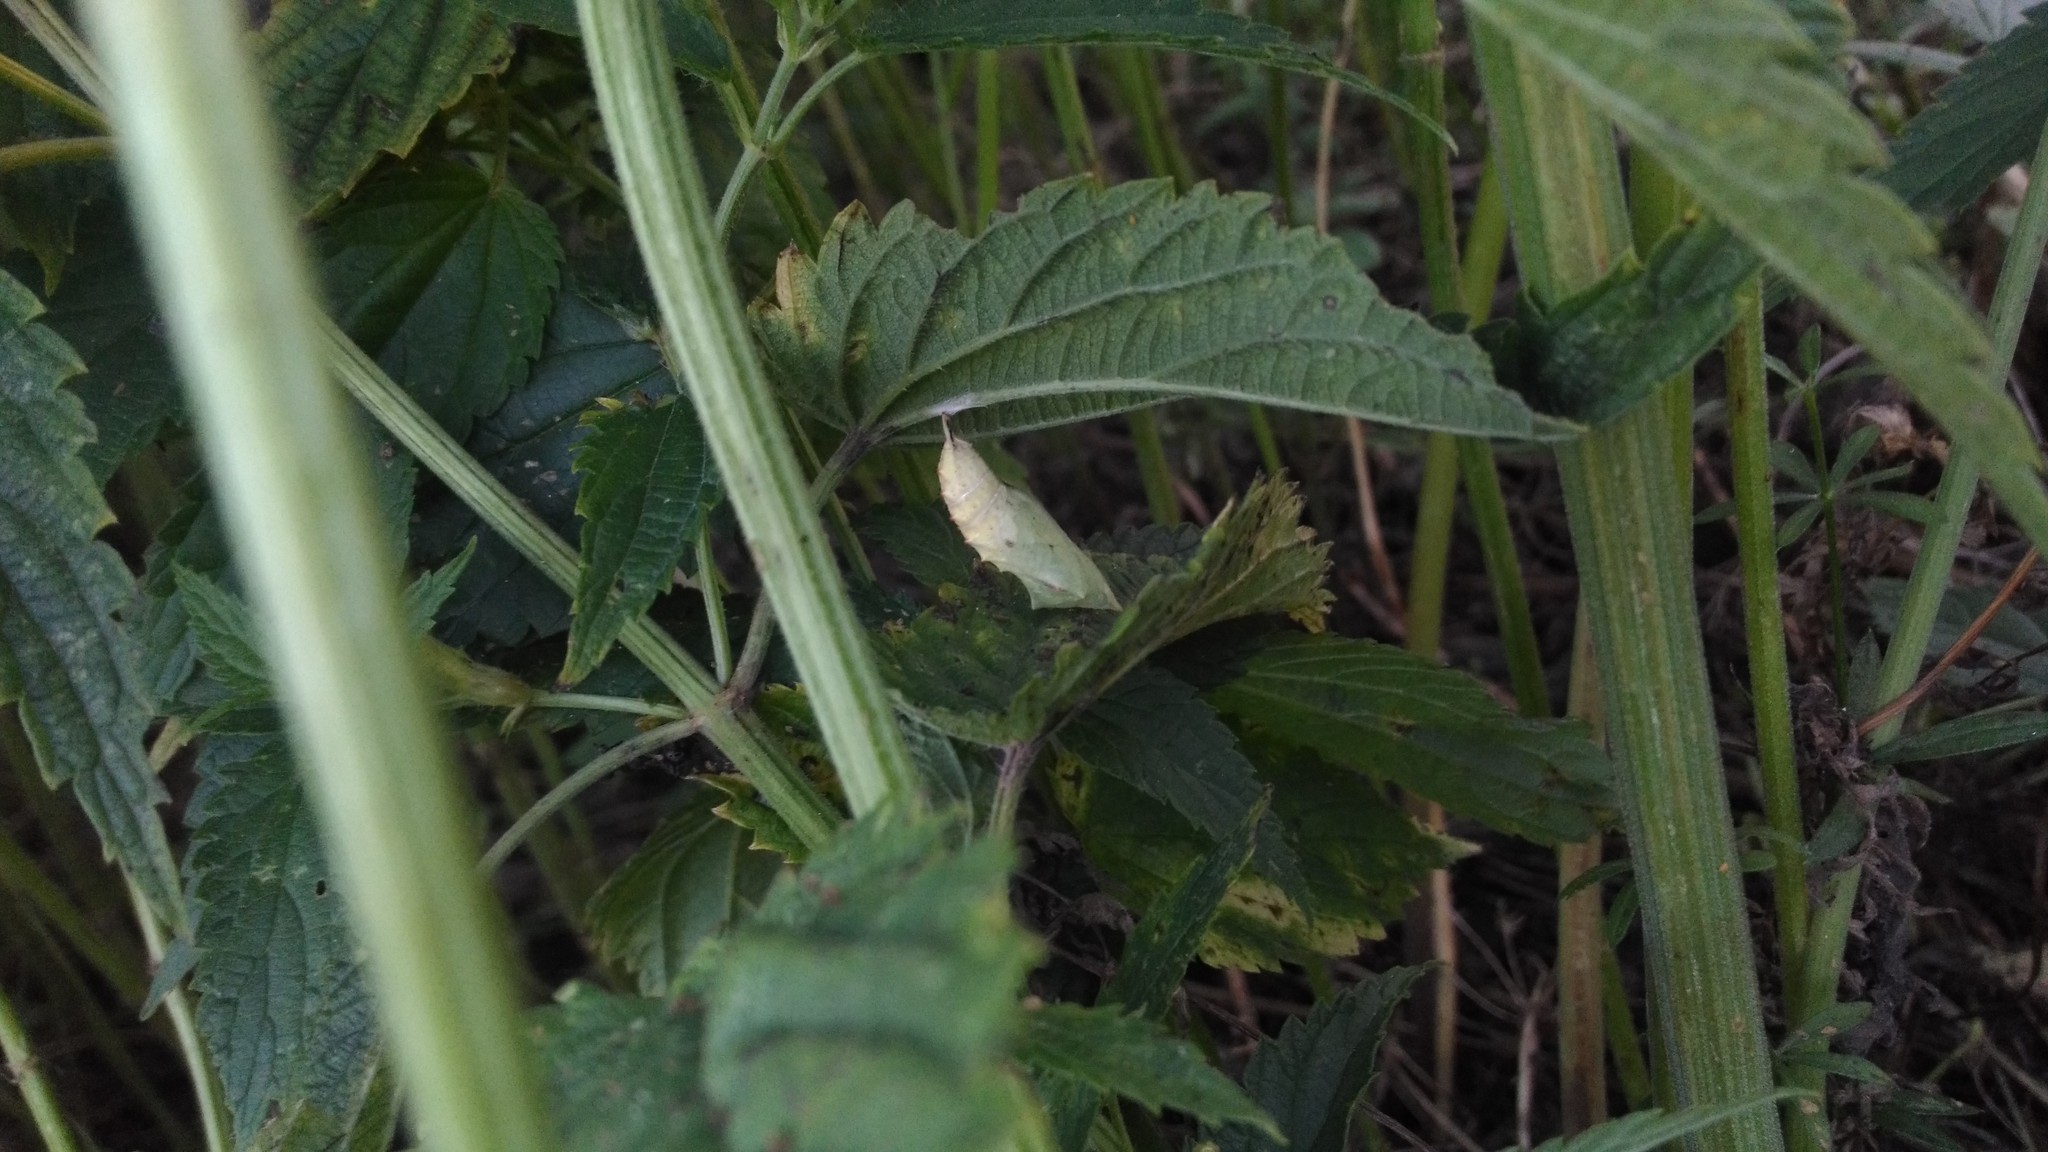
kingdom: Animalia
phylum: Arthropoda
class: Insecta
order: Lepidoptera
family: Nymphalidae
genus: Aglais
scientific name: Aglais urticae
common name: Small tortoiseshell
